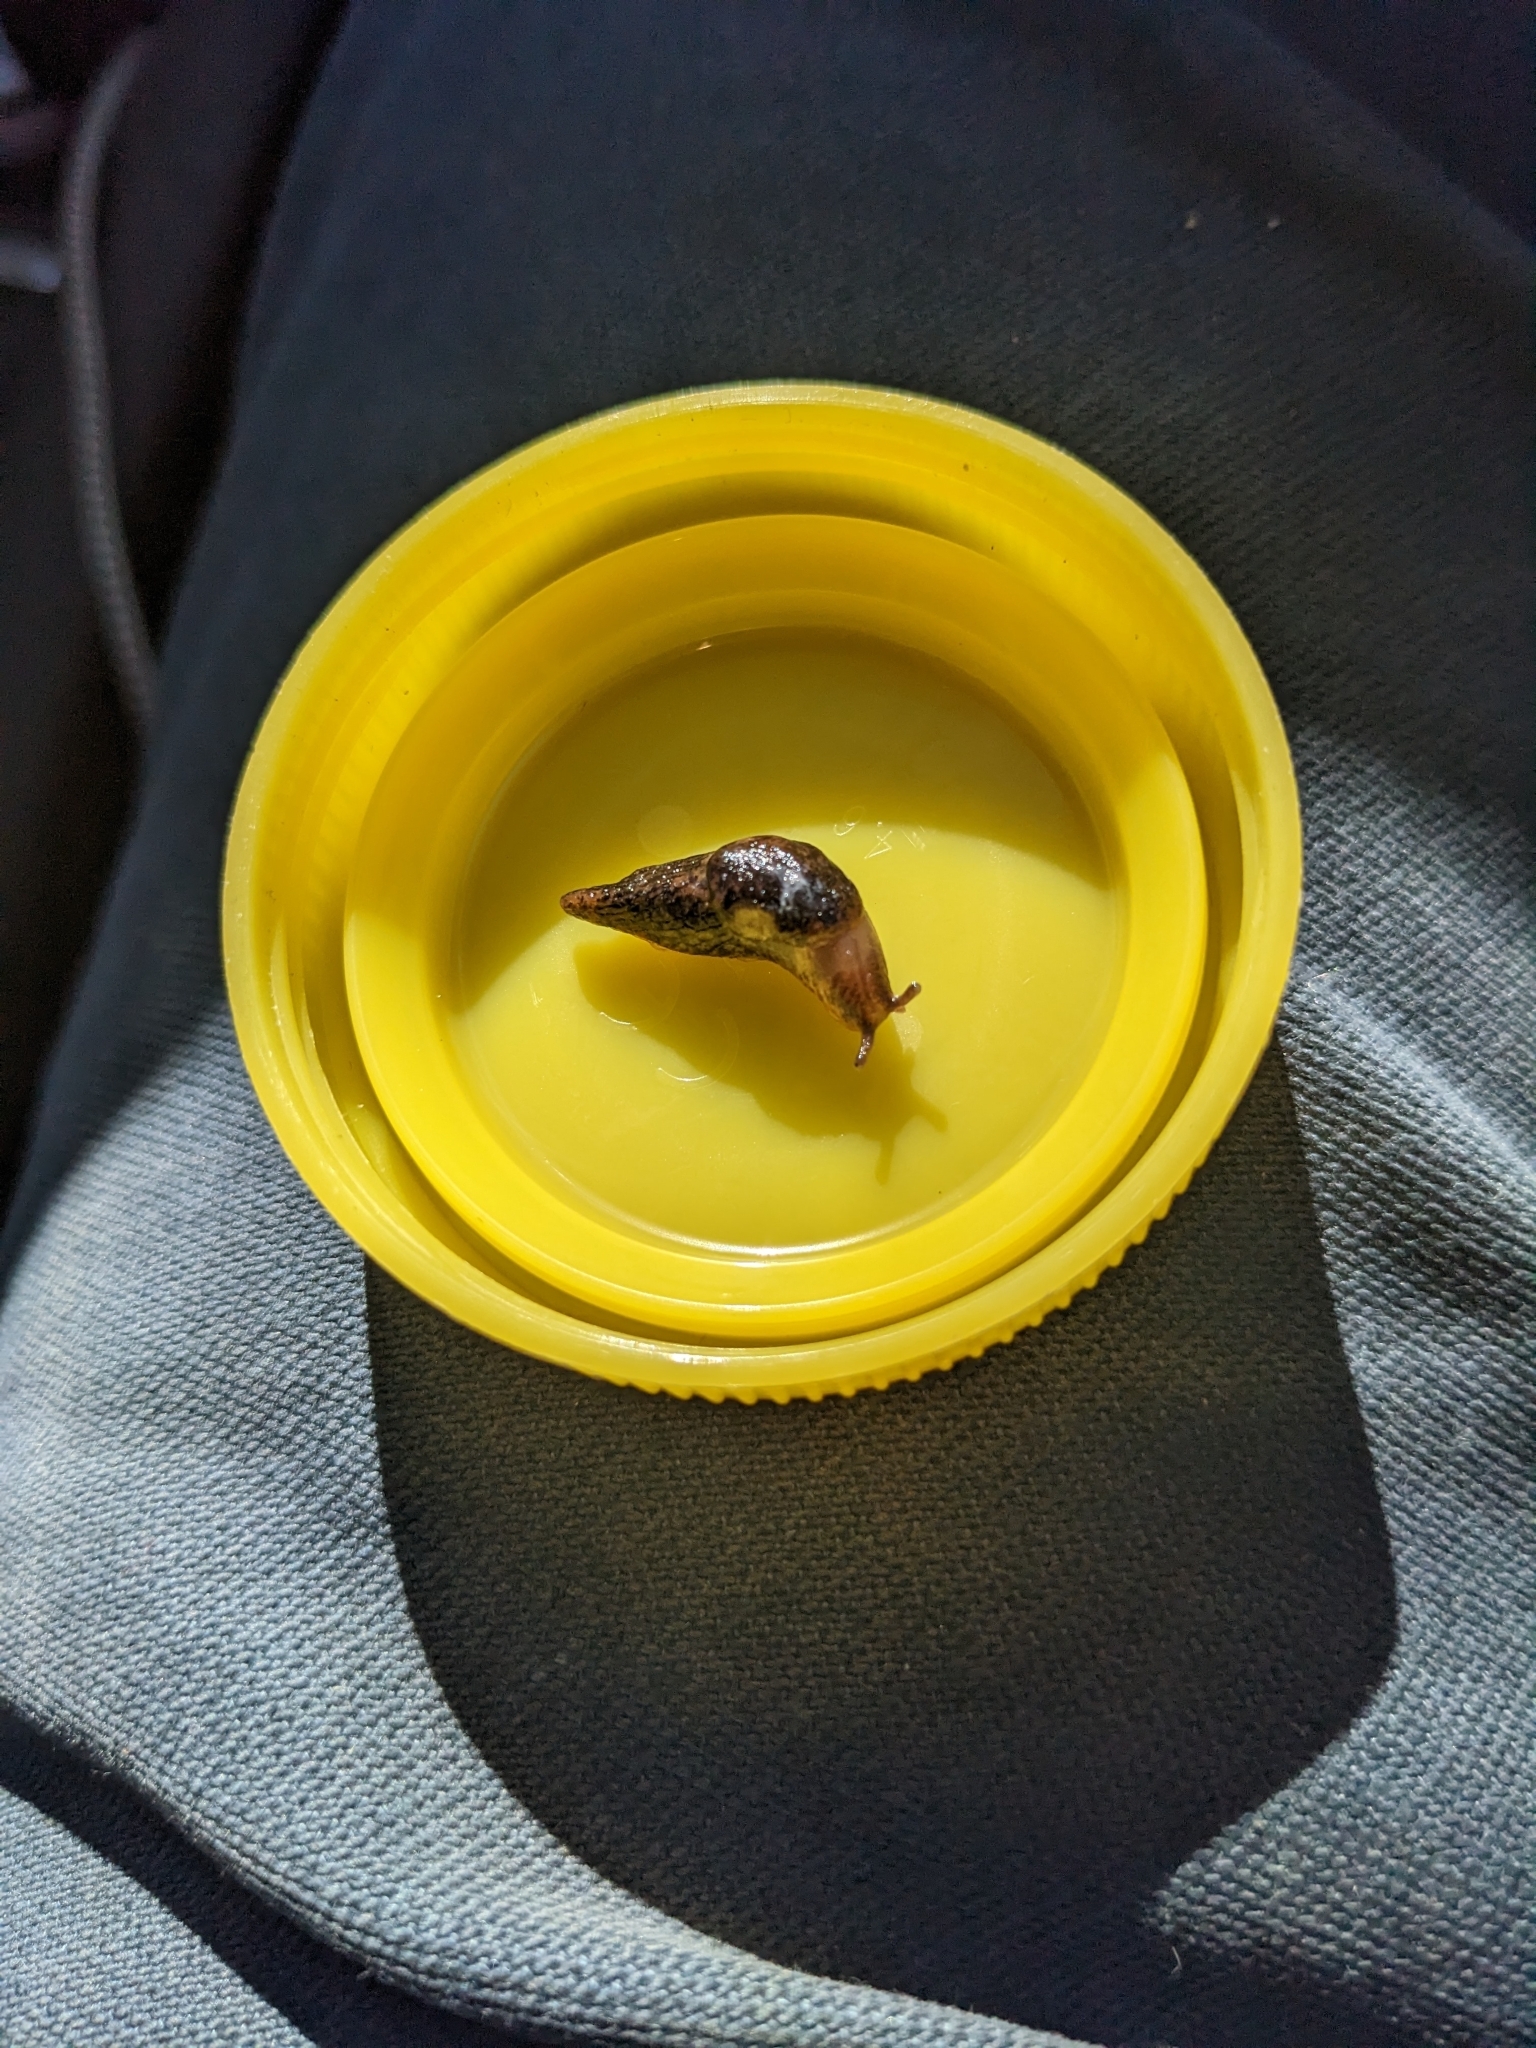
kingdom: Animalia
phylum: Mollusca
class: Gastropoda
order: Stylommatophora
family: Agriolimacidae
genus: Deroceras
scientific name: Deroceras reticulatum
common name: Gray field slug
